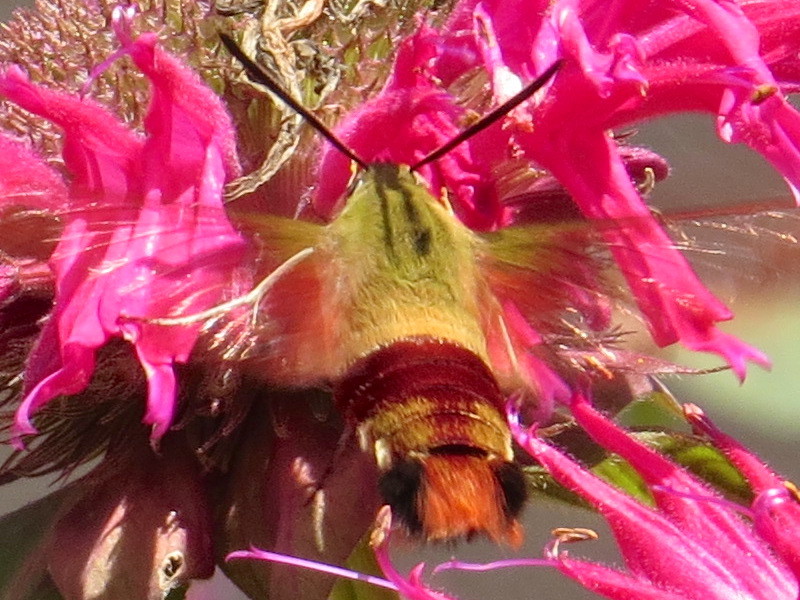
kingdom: Animalia
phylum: Arthropoda
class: Insecta
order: Lepidoptera
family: Sphingidae
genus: Hemaris
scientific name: Hemaris thysbe
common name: Common clear-wing
